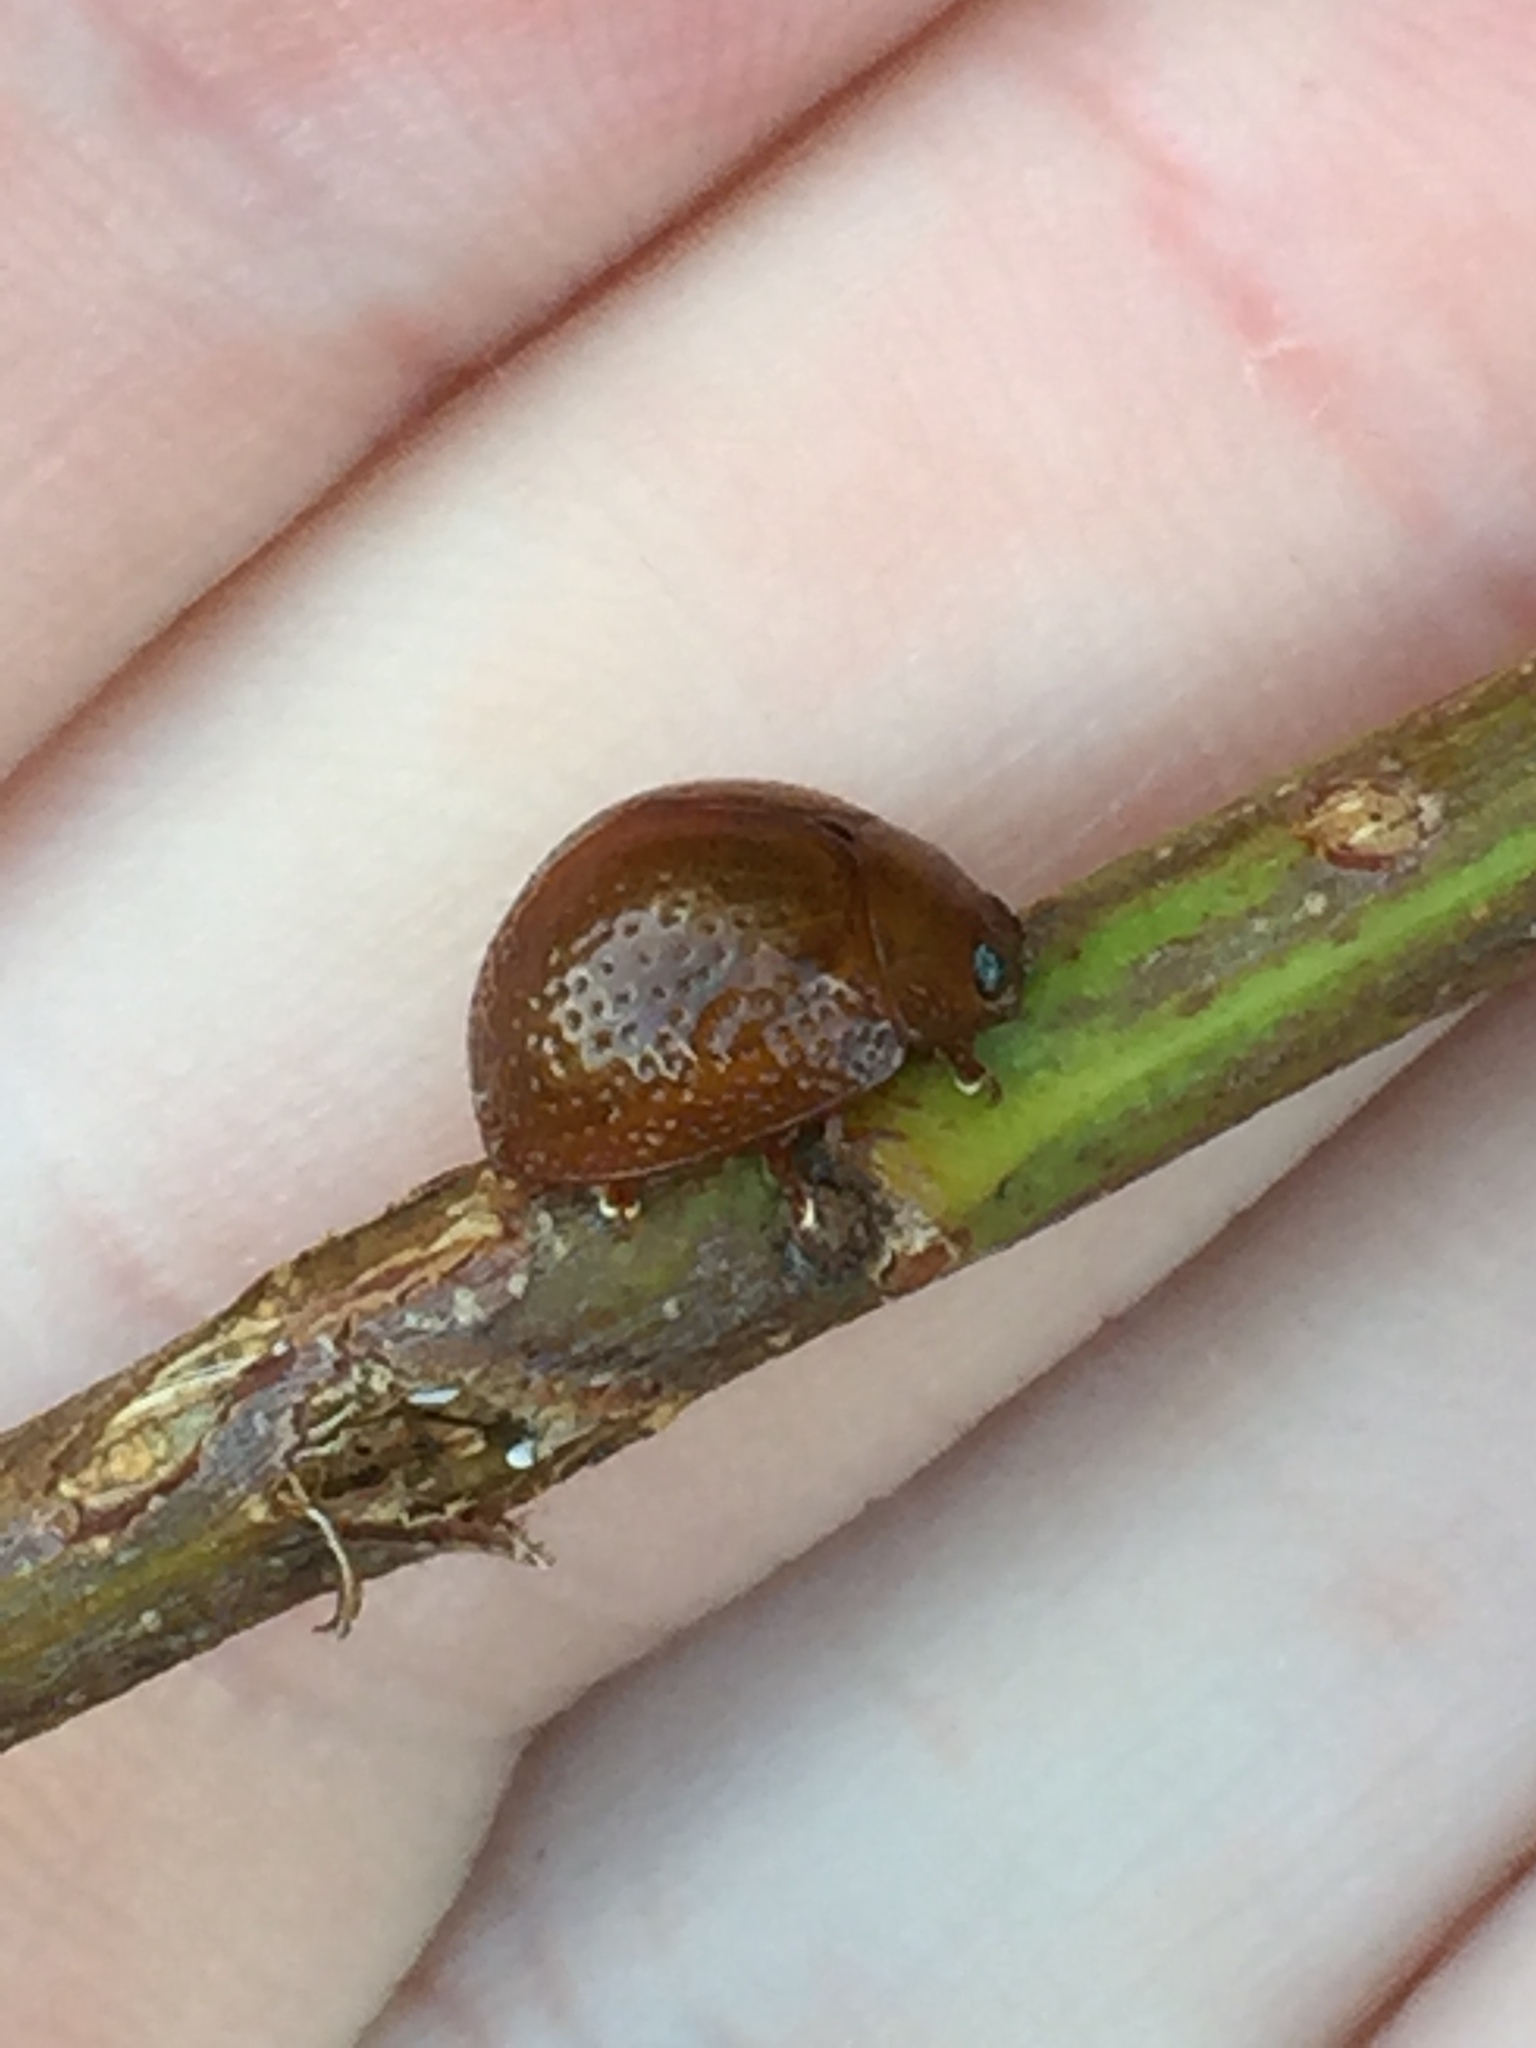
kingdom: Animalia
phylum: Arthropoda
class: Insecta
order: Coleoptera
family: Chrysomelidae
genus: Dicranosterna
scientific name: Dicranosterna
